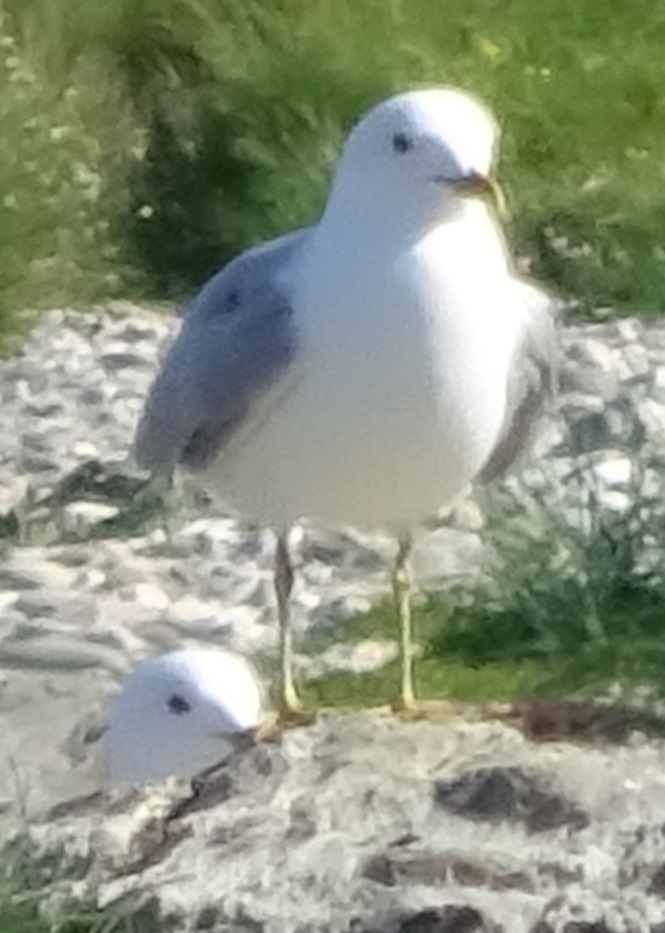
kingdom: Animalia
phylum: Chordata
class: Aves
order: Charadriiformes
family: Laridae
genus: Larus
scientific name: Larus canus
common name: Mew gull
